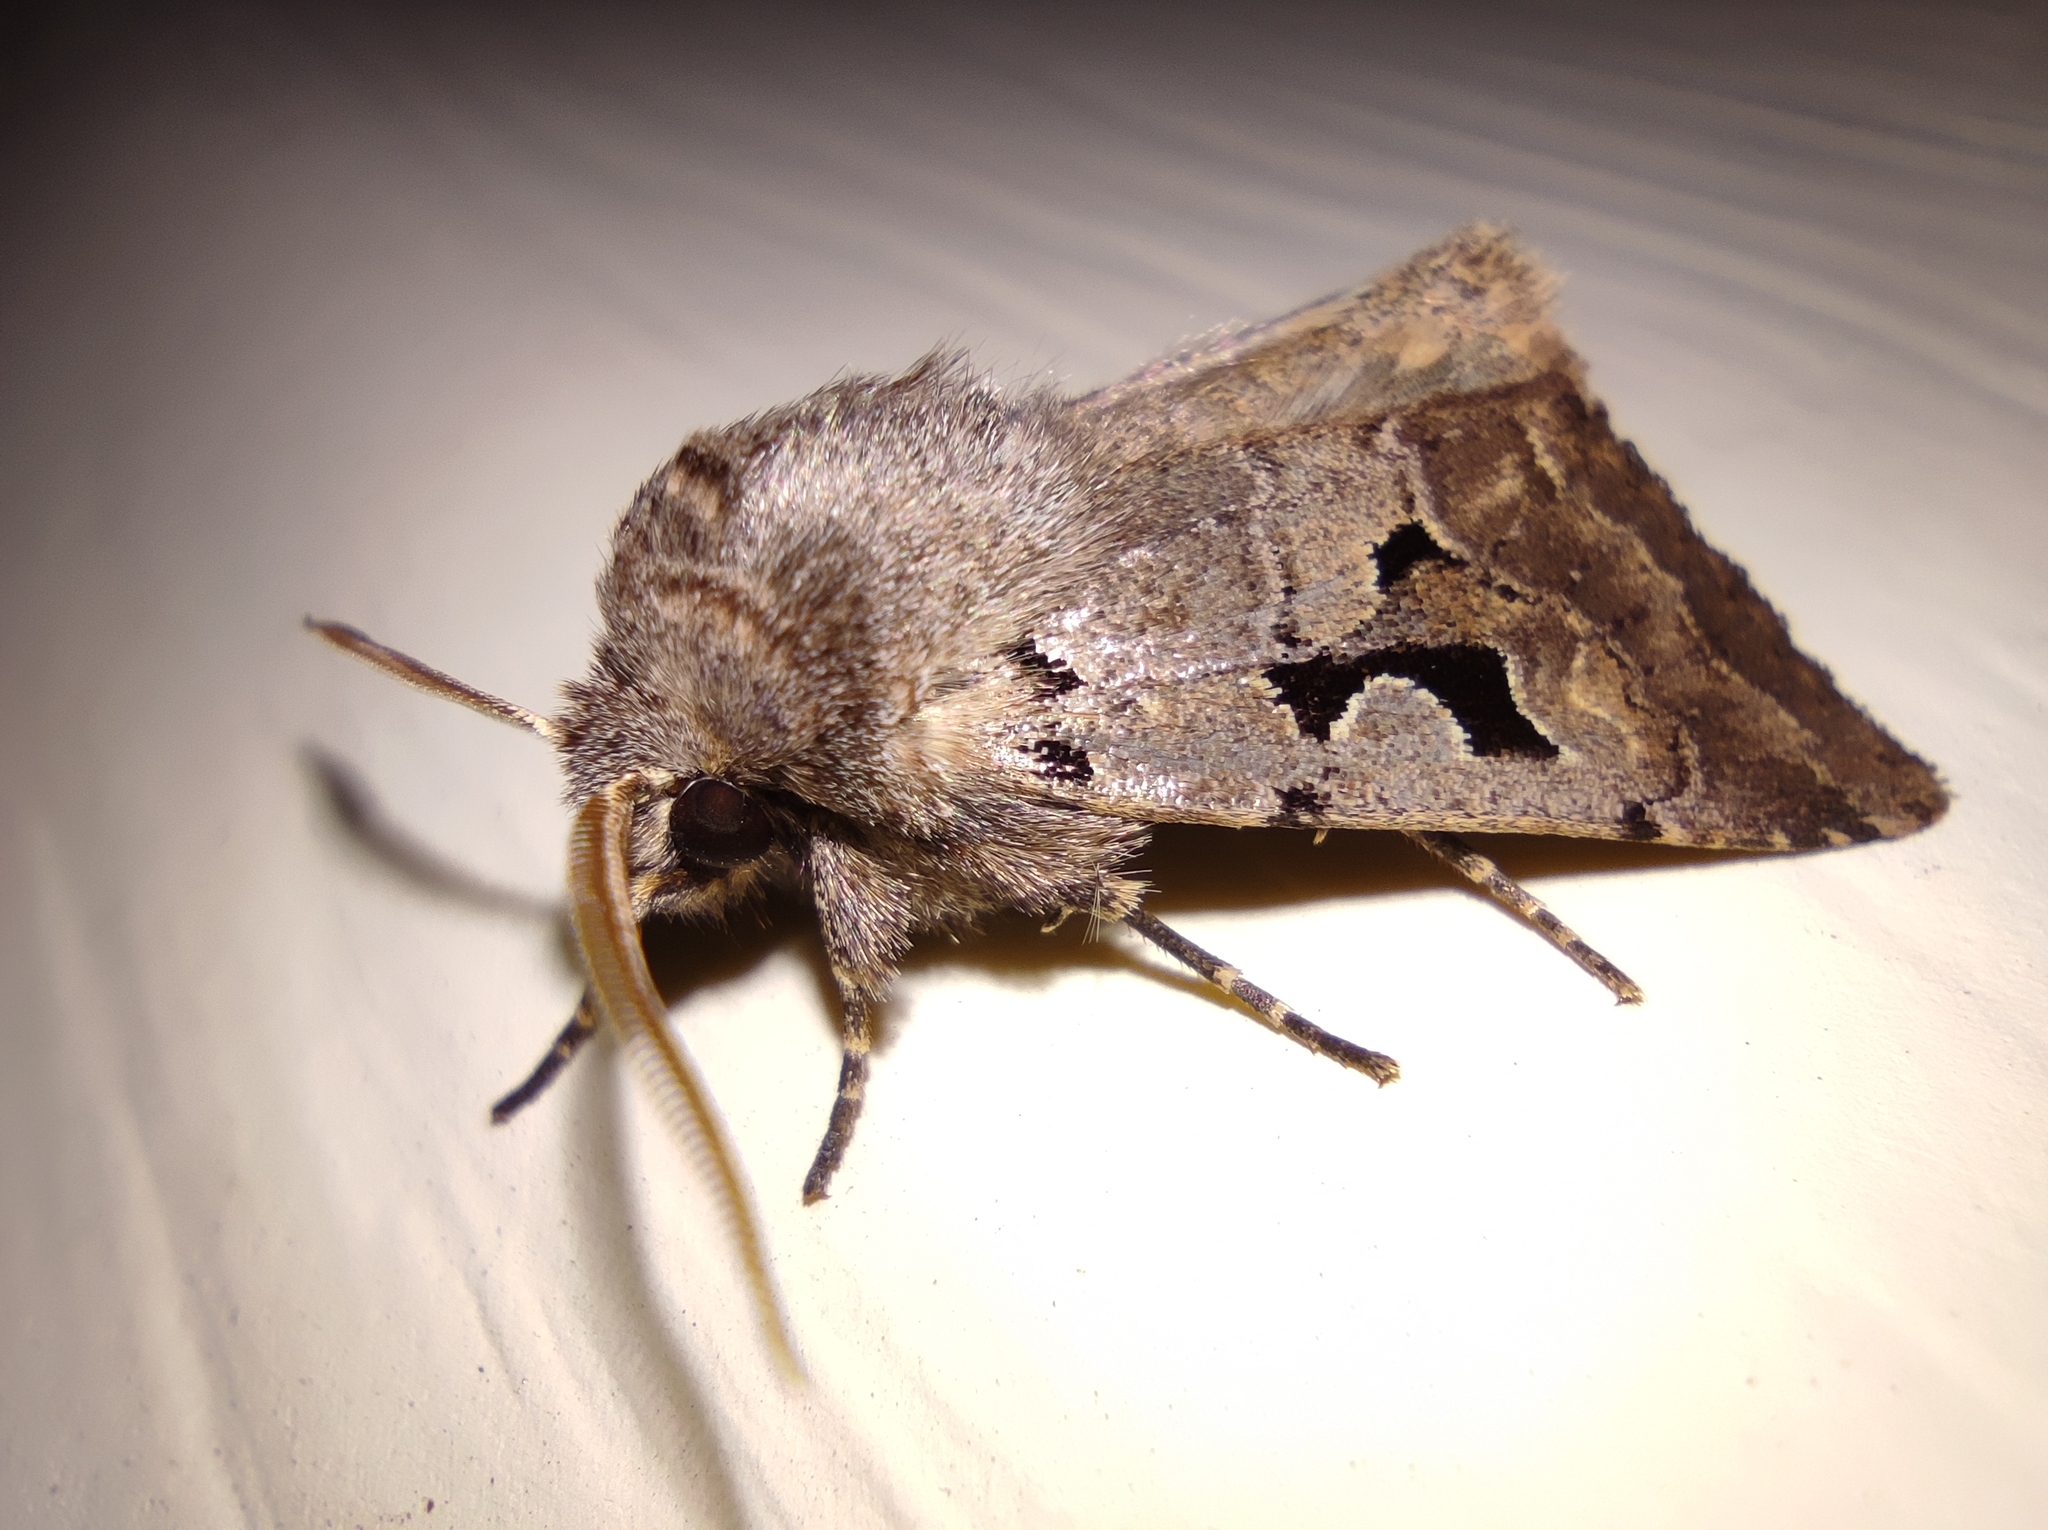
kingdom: Animalia
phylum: Arthropoda
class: Insecta
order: Lepidoptera
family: Noctuidae
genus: Orthosia
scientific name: Orthosia gothica
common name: Hebrew character
